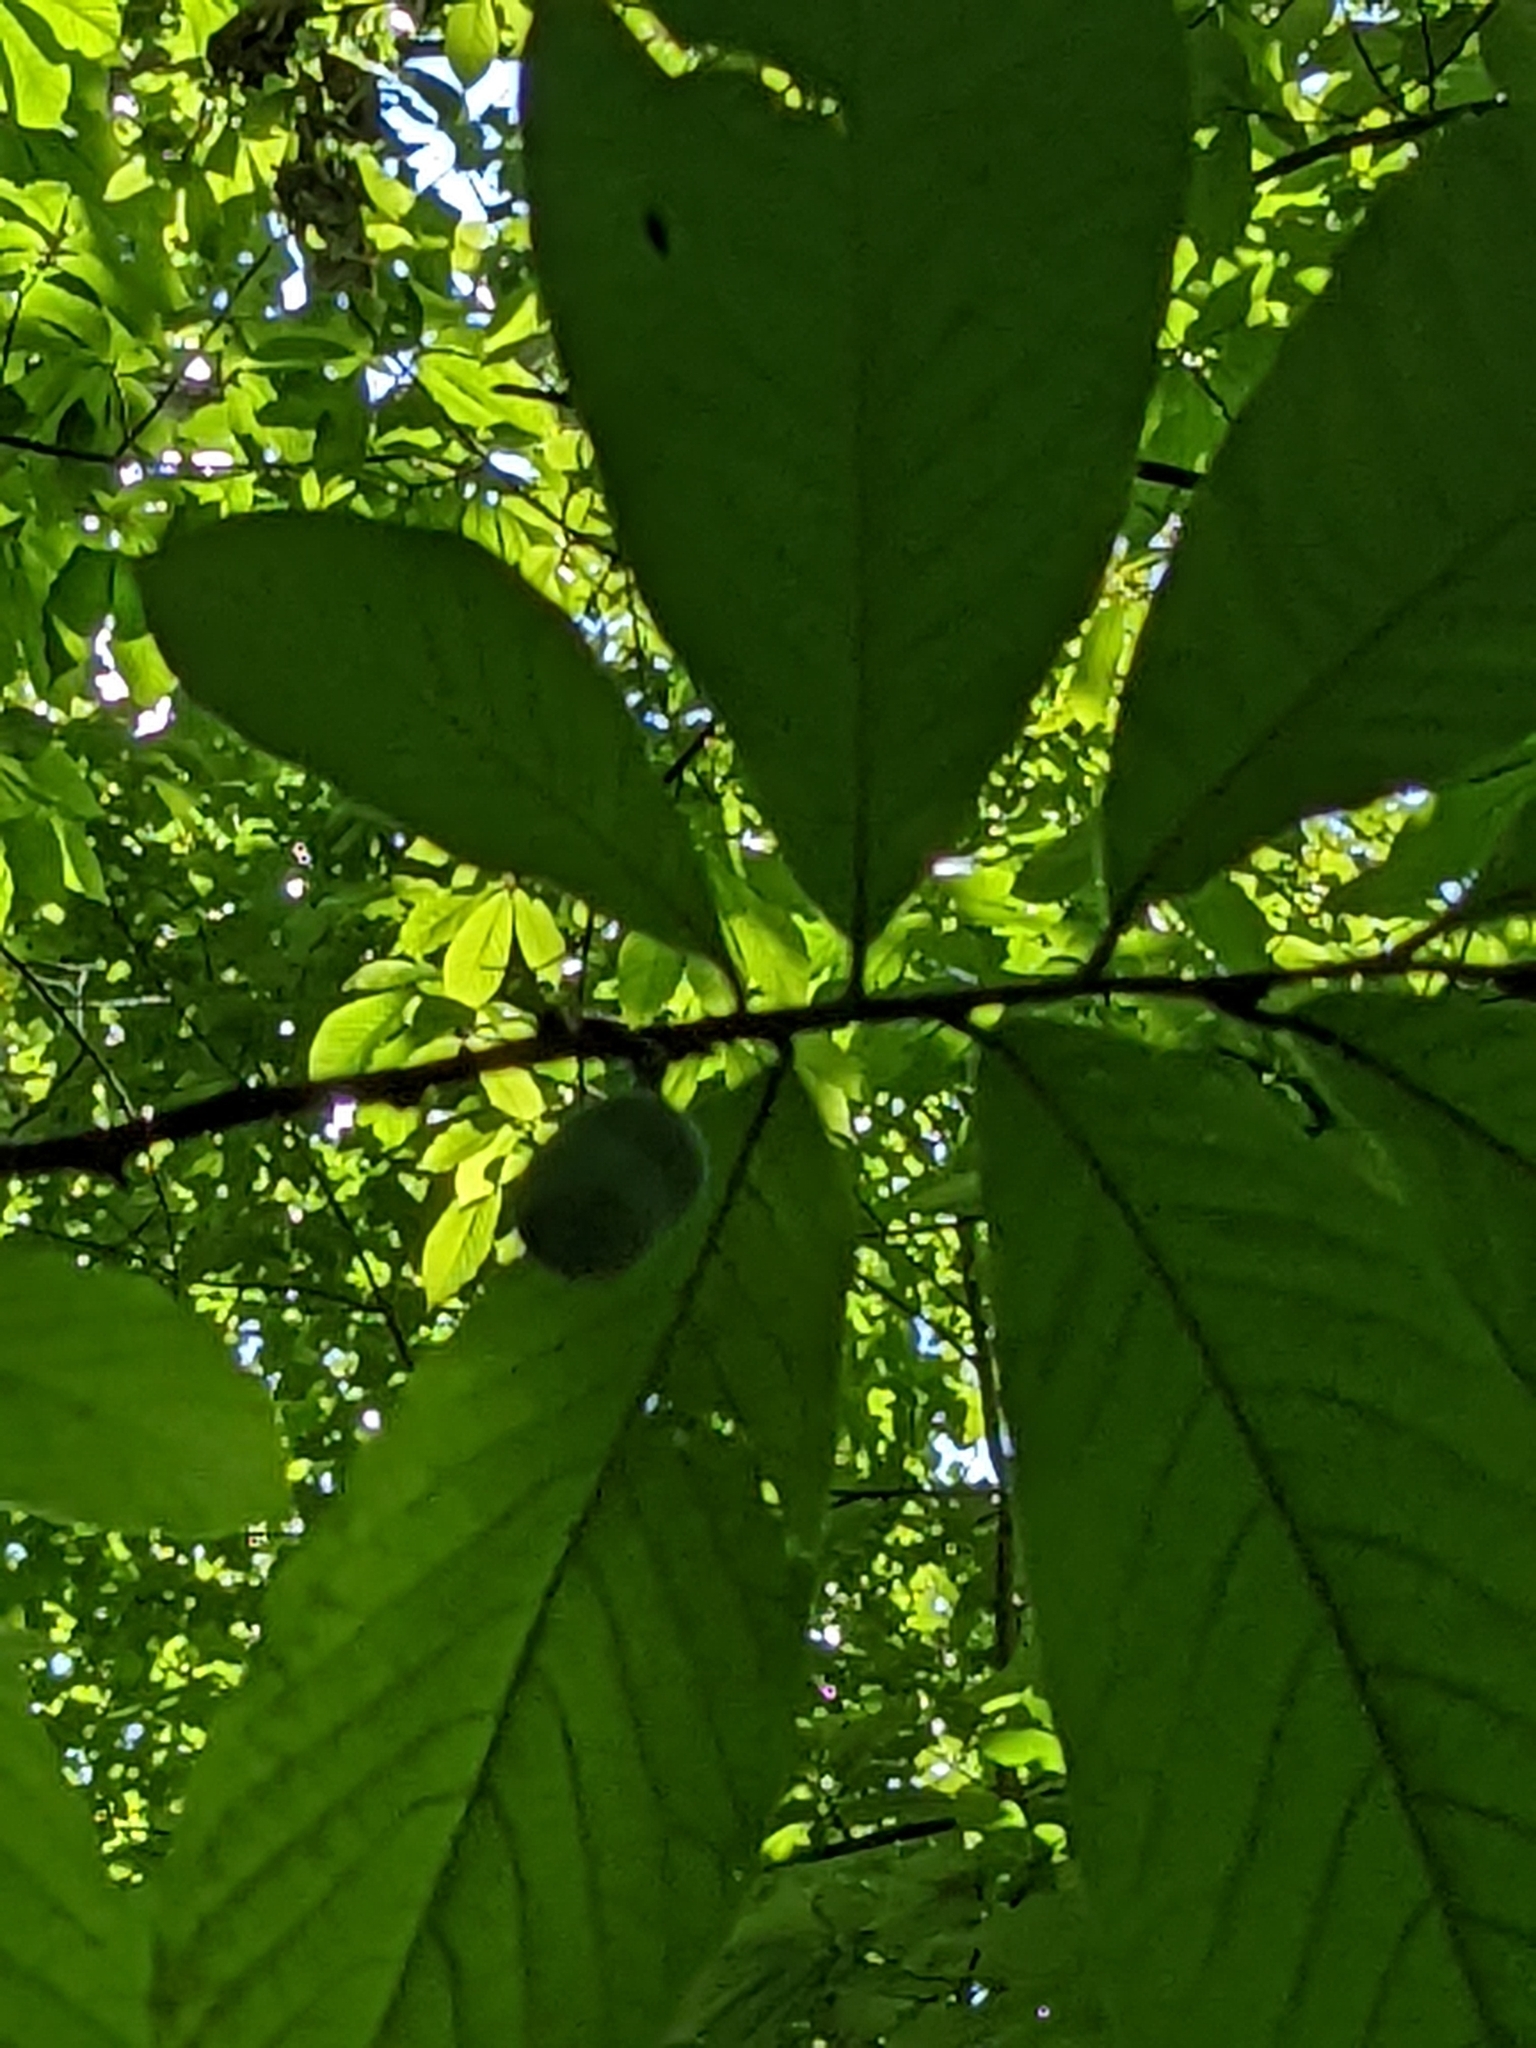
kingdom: Plantae
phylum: Tracheophyta
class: Magnoliopsida
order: Magnoliales
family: Annonaceae
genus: Asimina
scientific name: Asimina triloba
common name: Dog-banana
